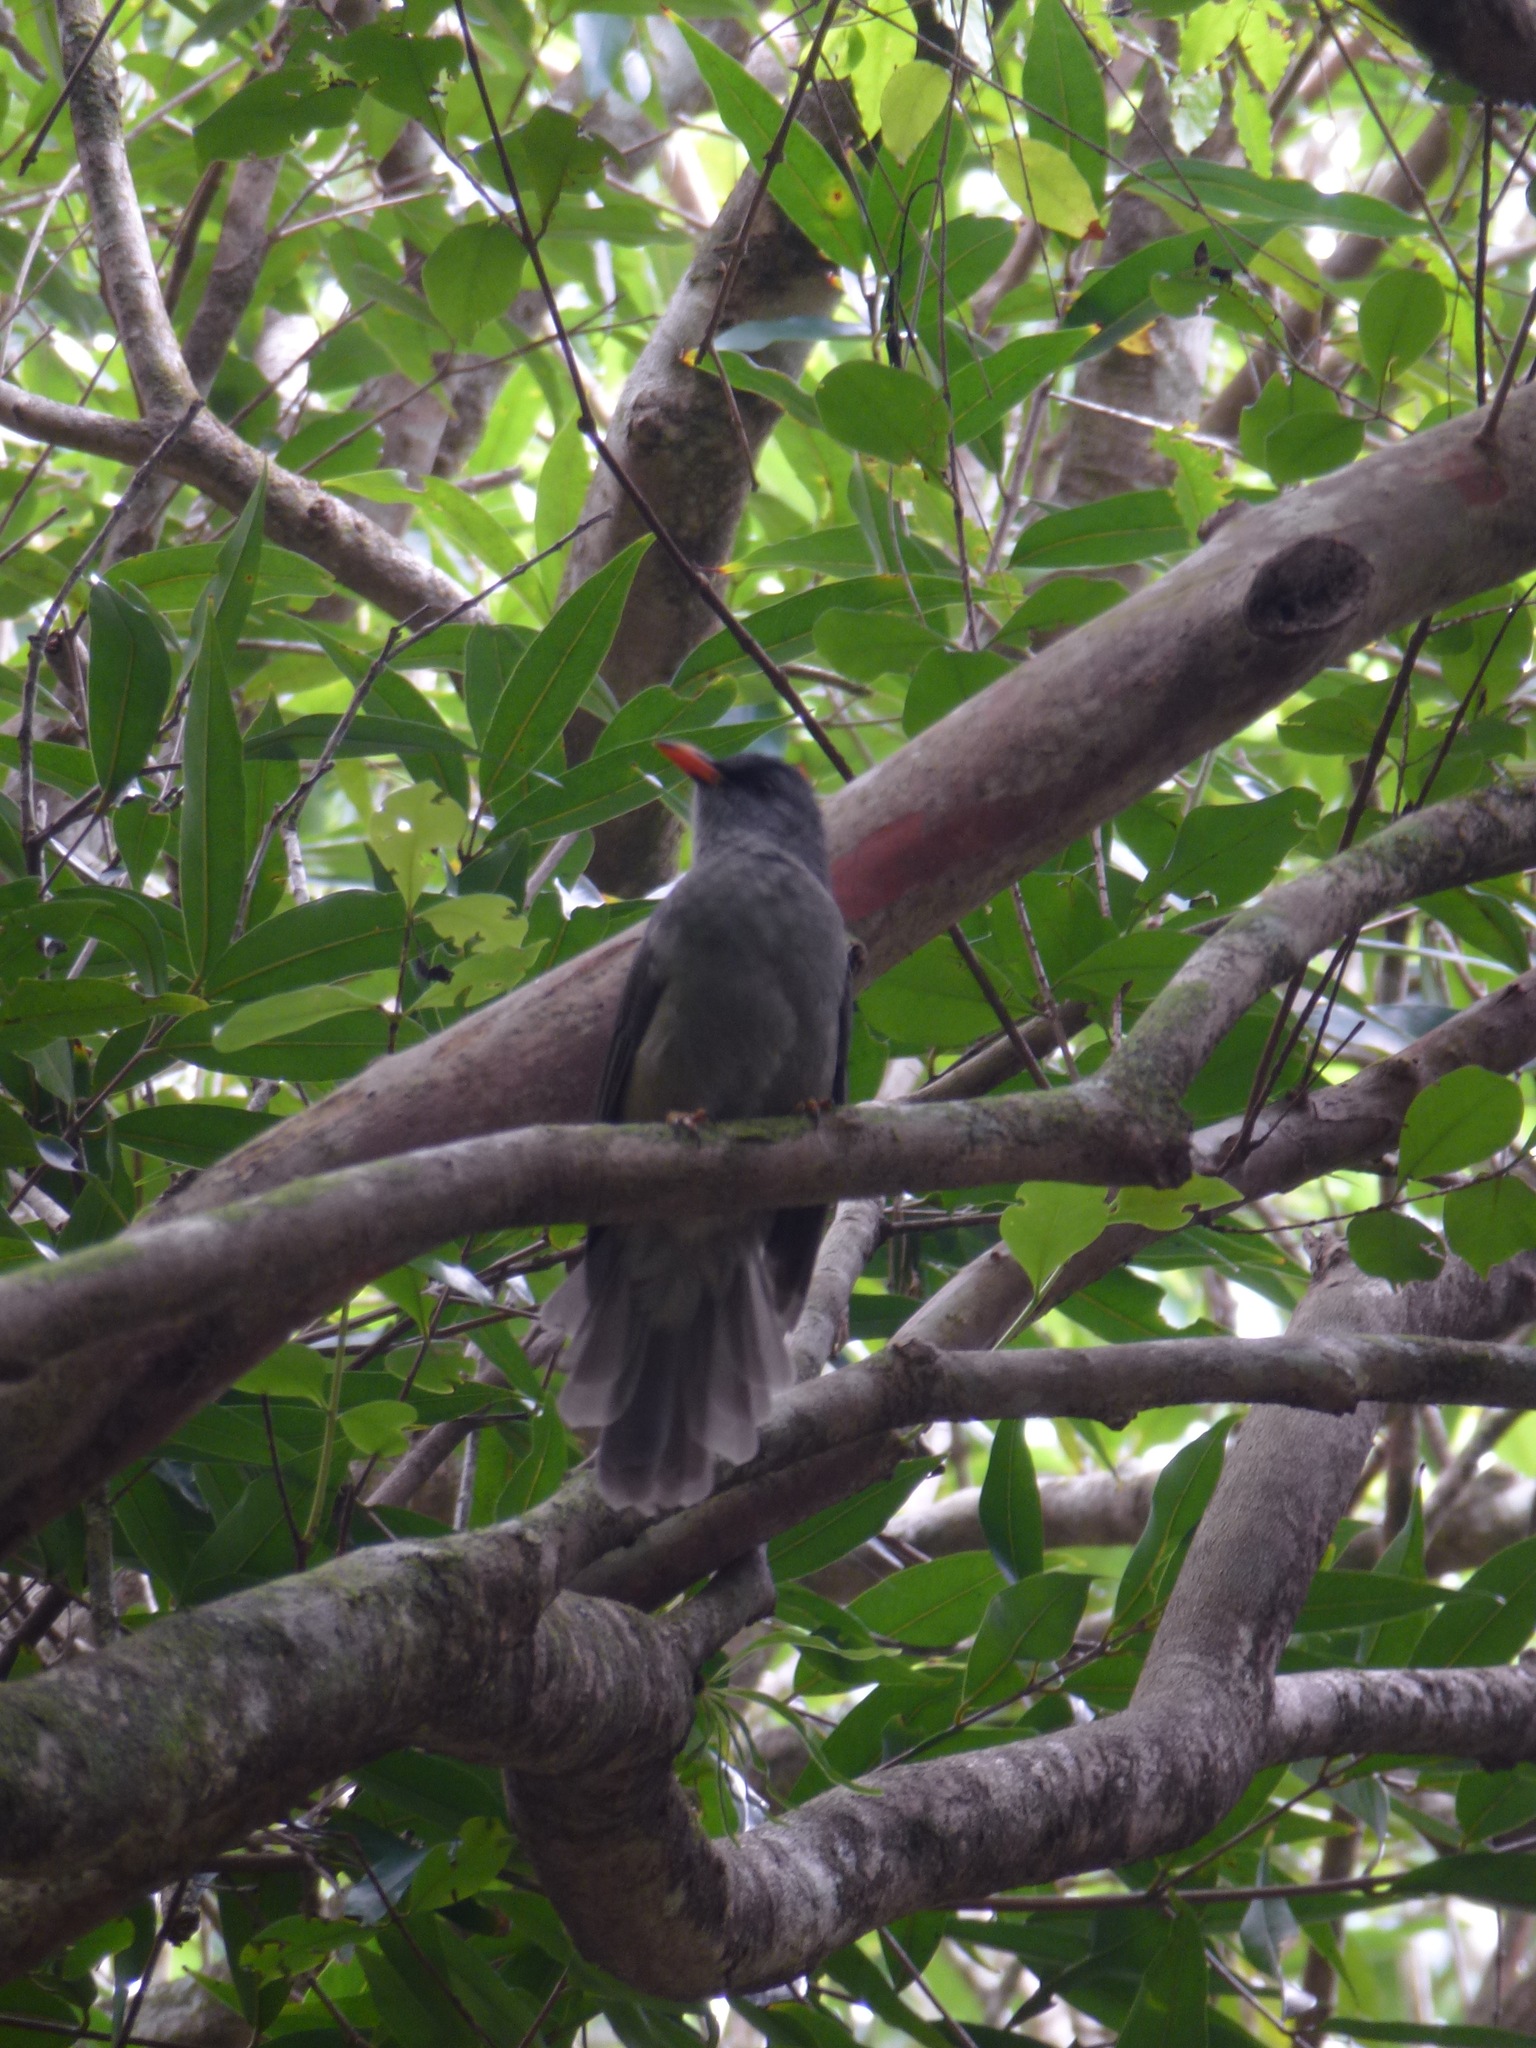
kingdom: Animalia
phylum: Chordata
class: Aves
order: Passeriformes
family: Pycnonotidae
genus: Hypsipetes
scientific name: Hypsipetes olivaceus
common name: Mauritius bulbul
